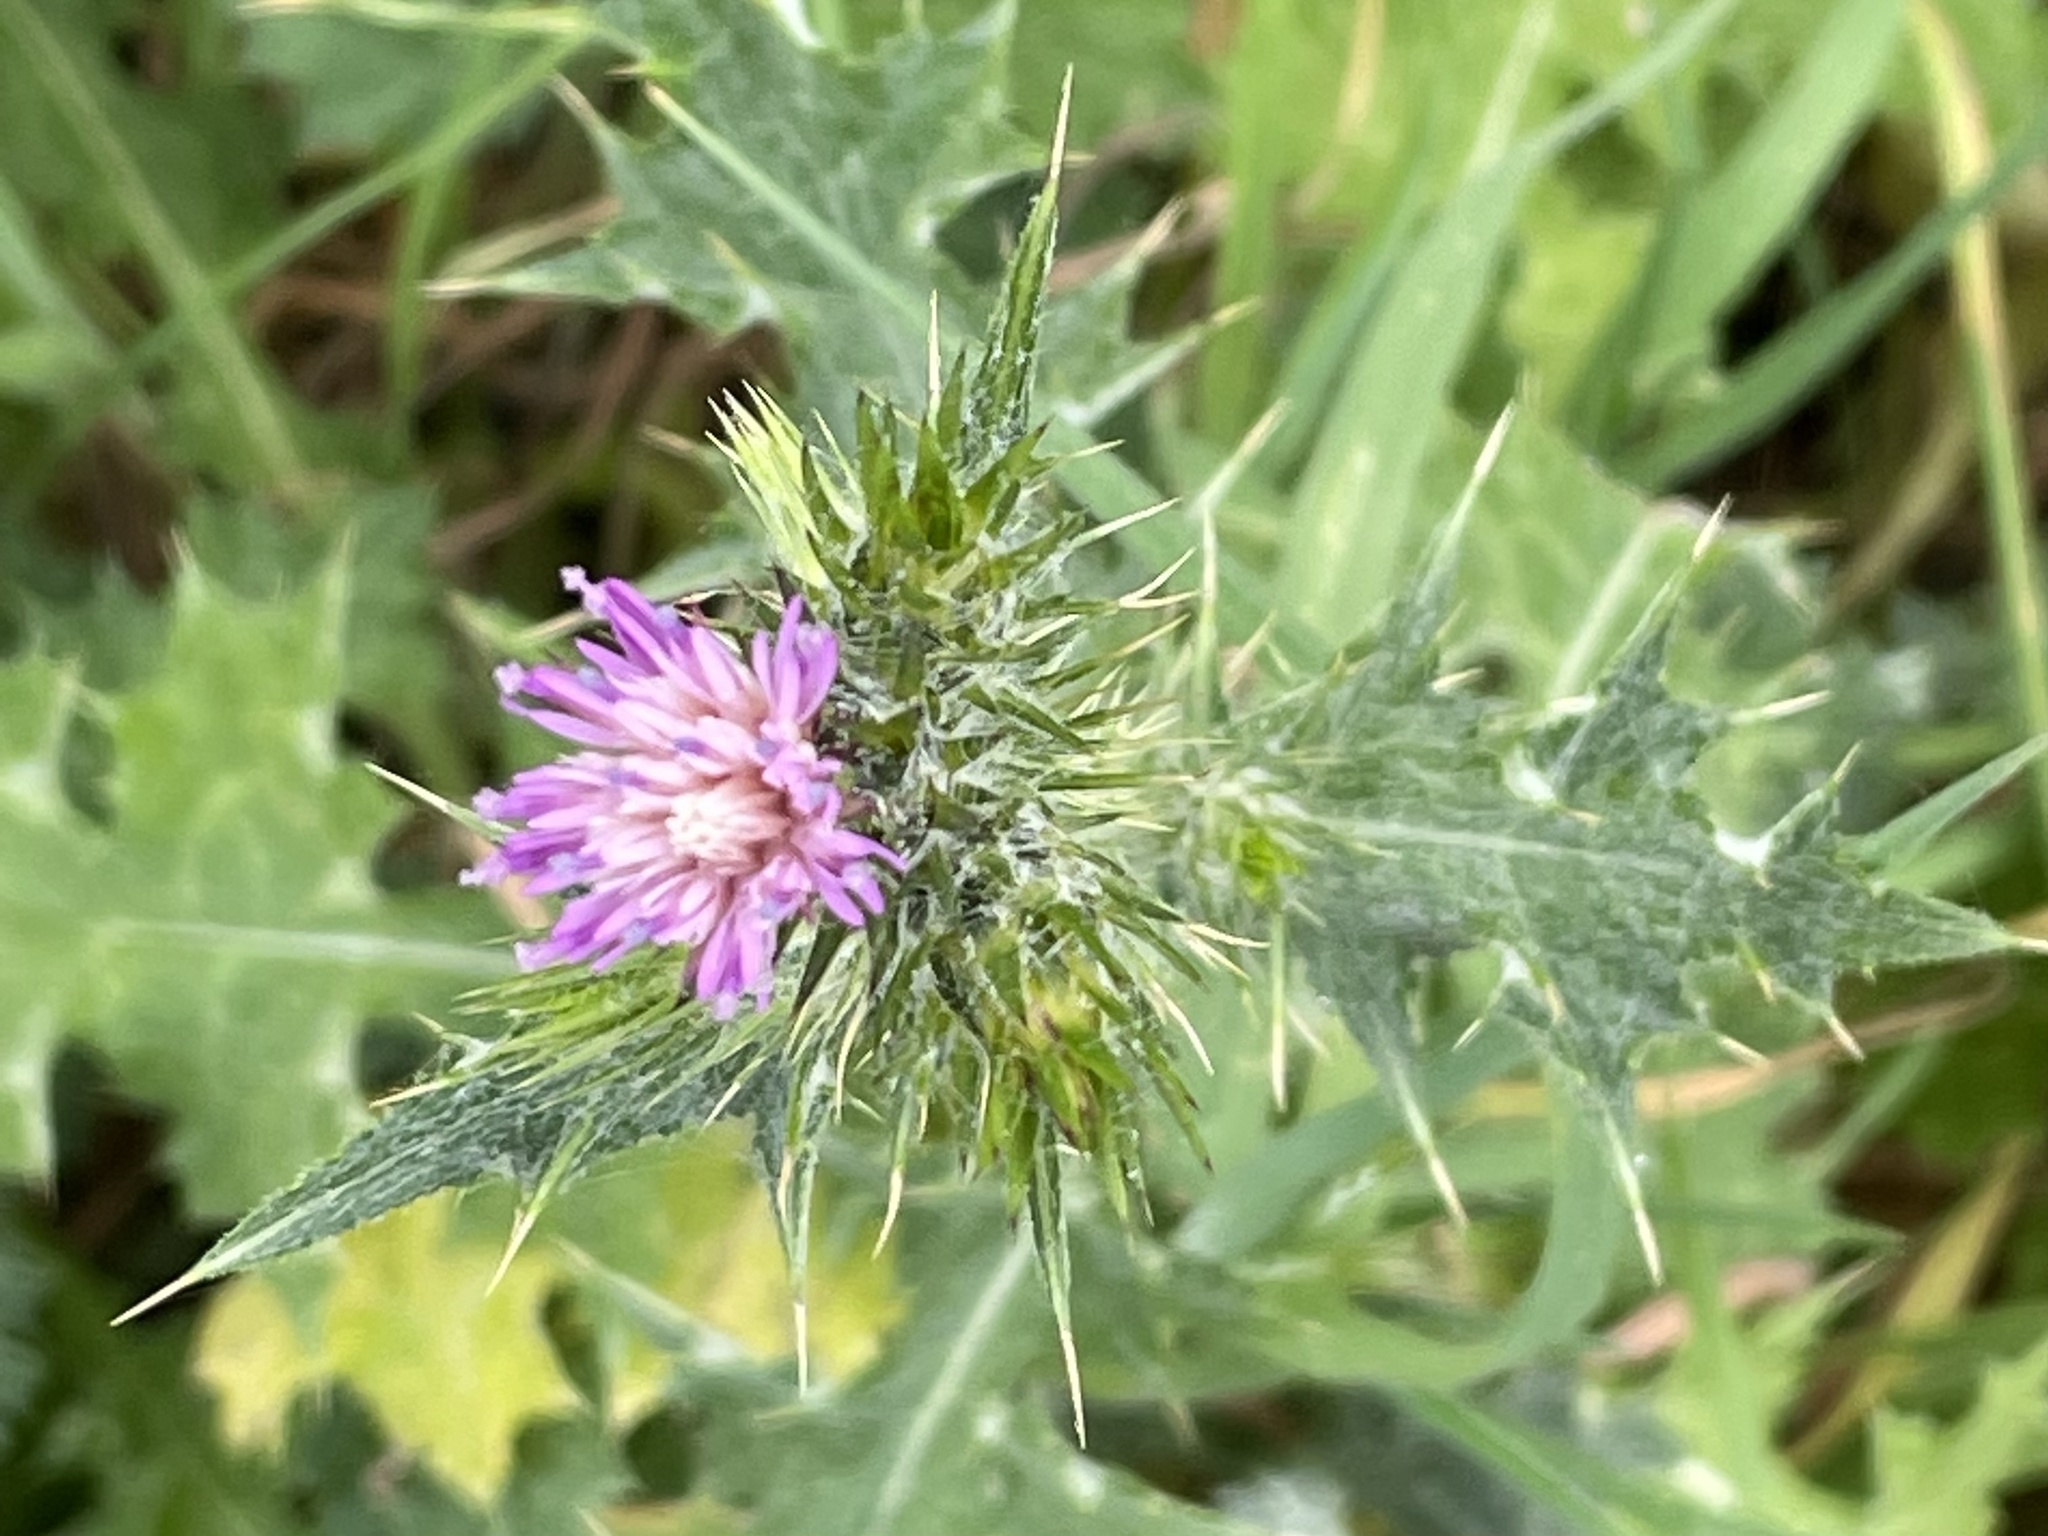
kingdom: Plantae
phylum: Tracheophyta
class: Magnoliopsida
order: Asterales
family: Asteraceae
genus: Carduus
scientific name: Carduus pycnocephalus
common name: Plymouth thistle
